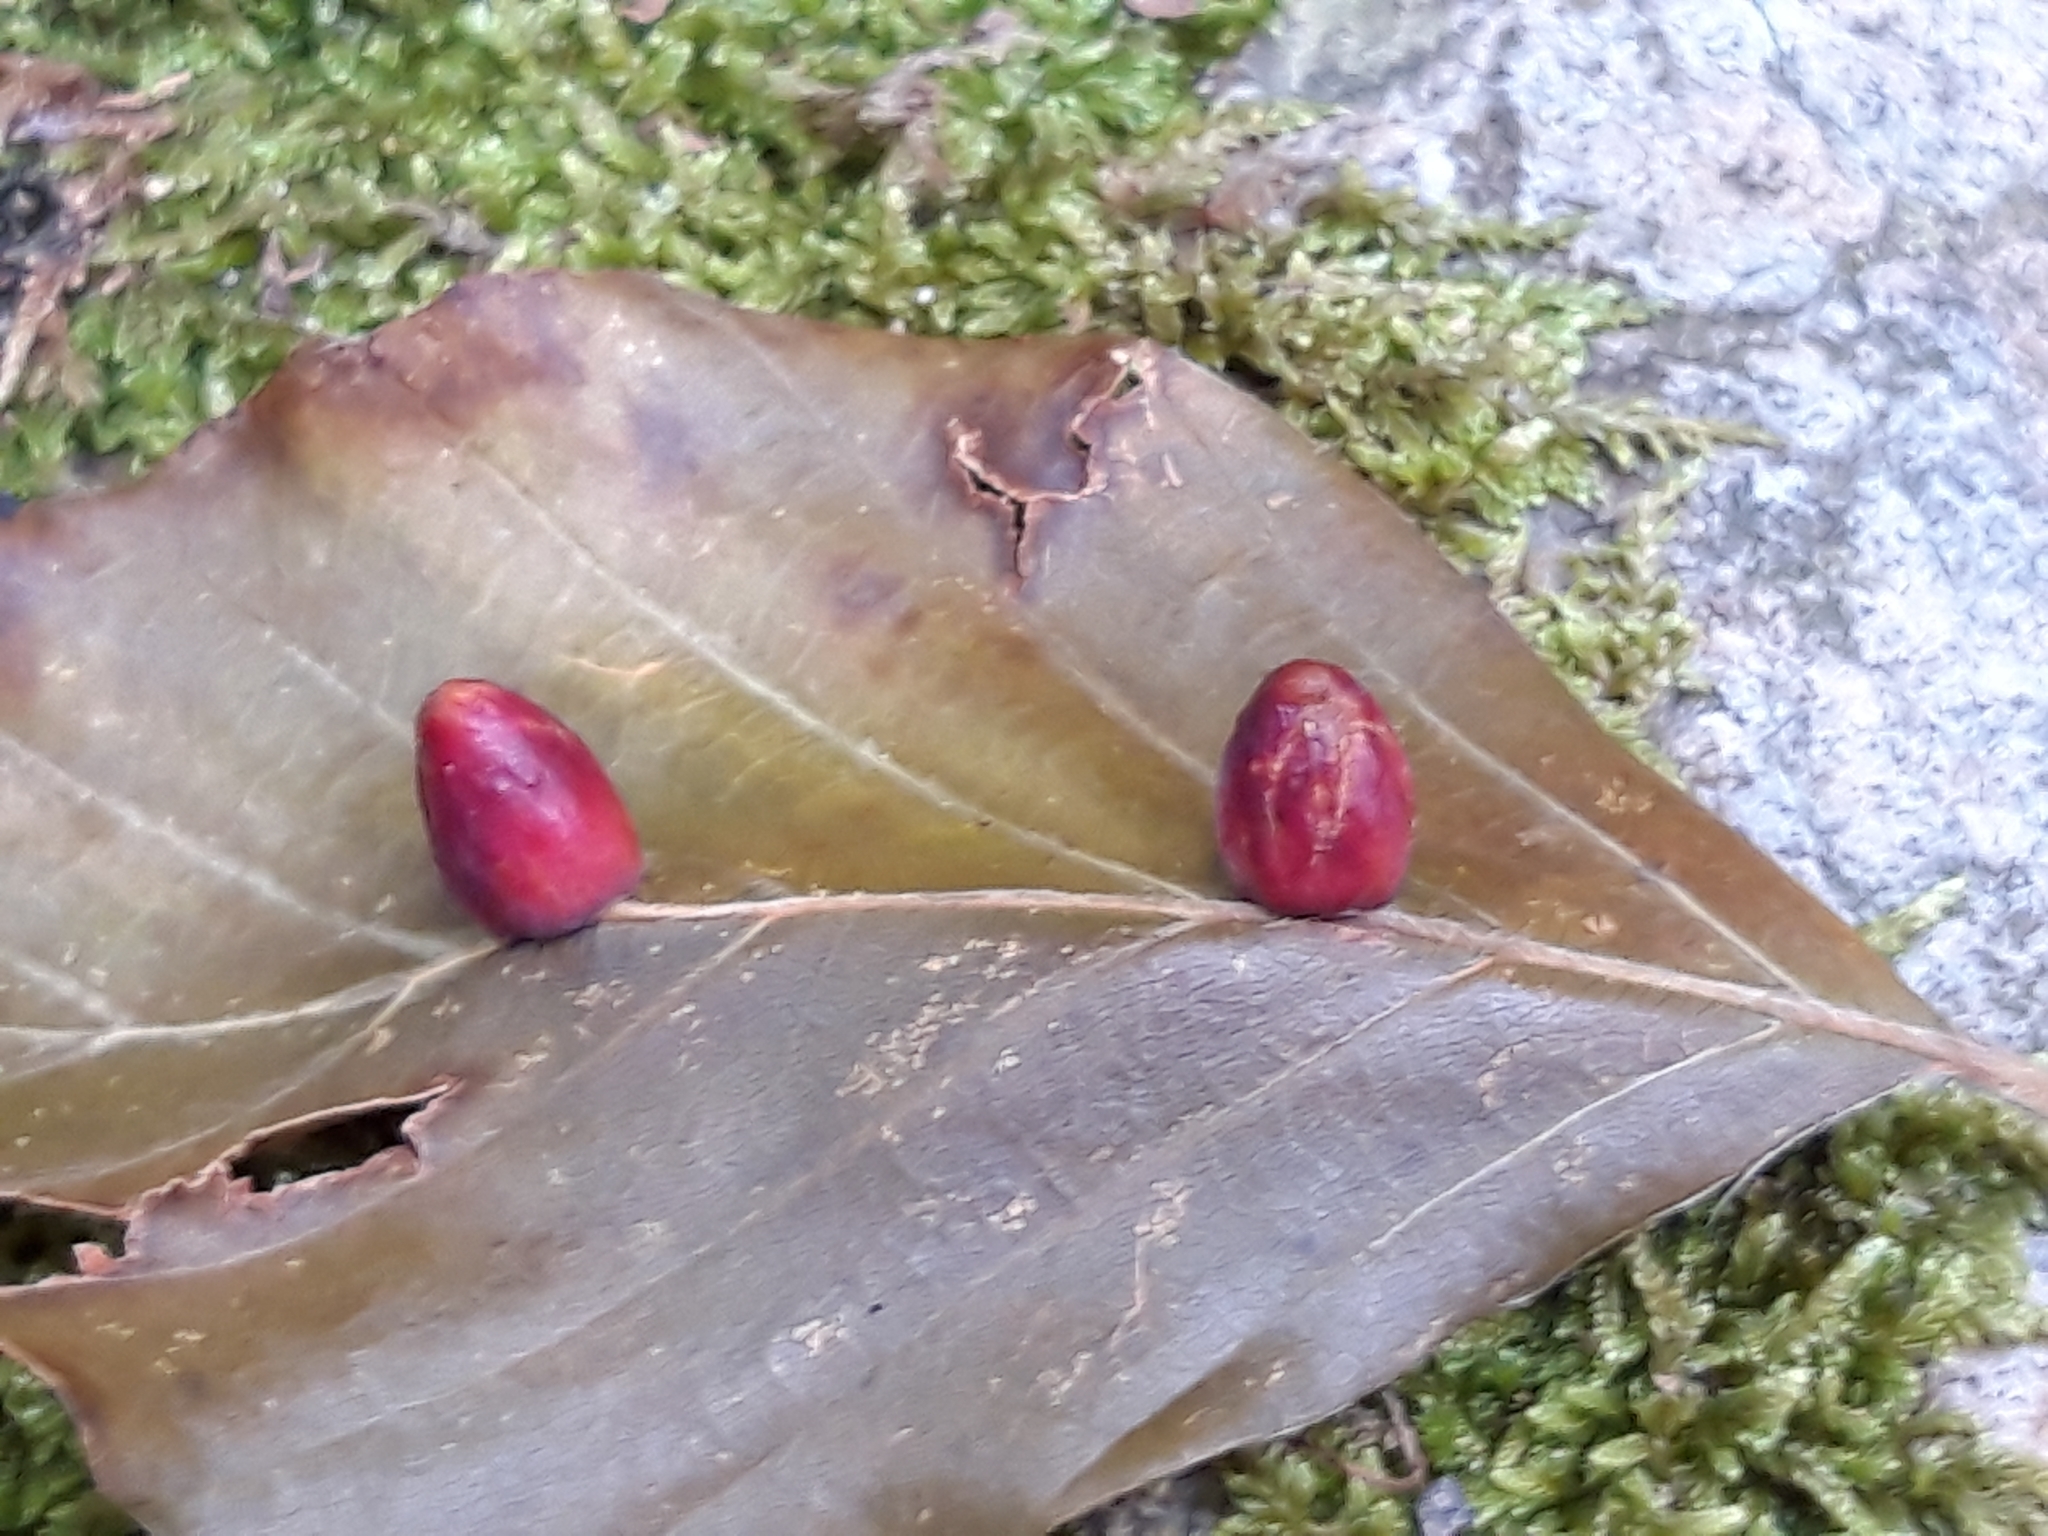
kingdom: Animalia
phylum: Arthropoda
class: Insecta
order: Diptera
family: Cecidomyiidae
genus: Mikiola
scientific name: Mikiola fagi
